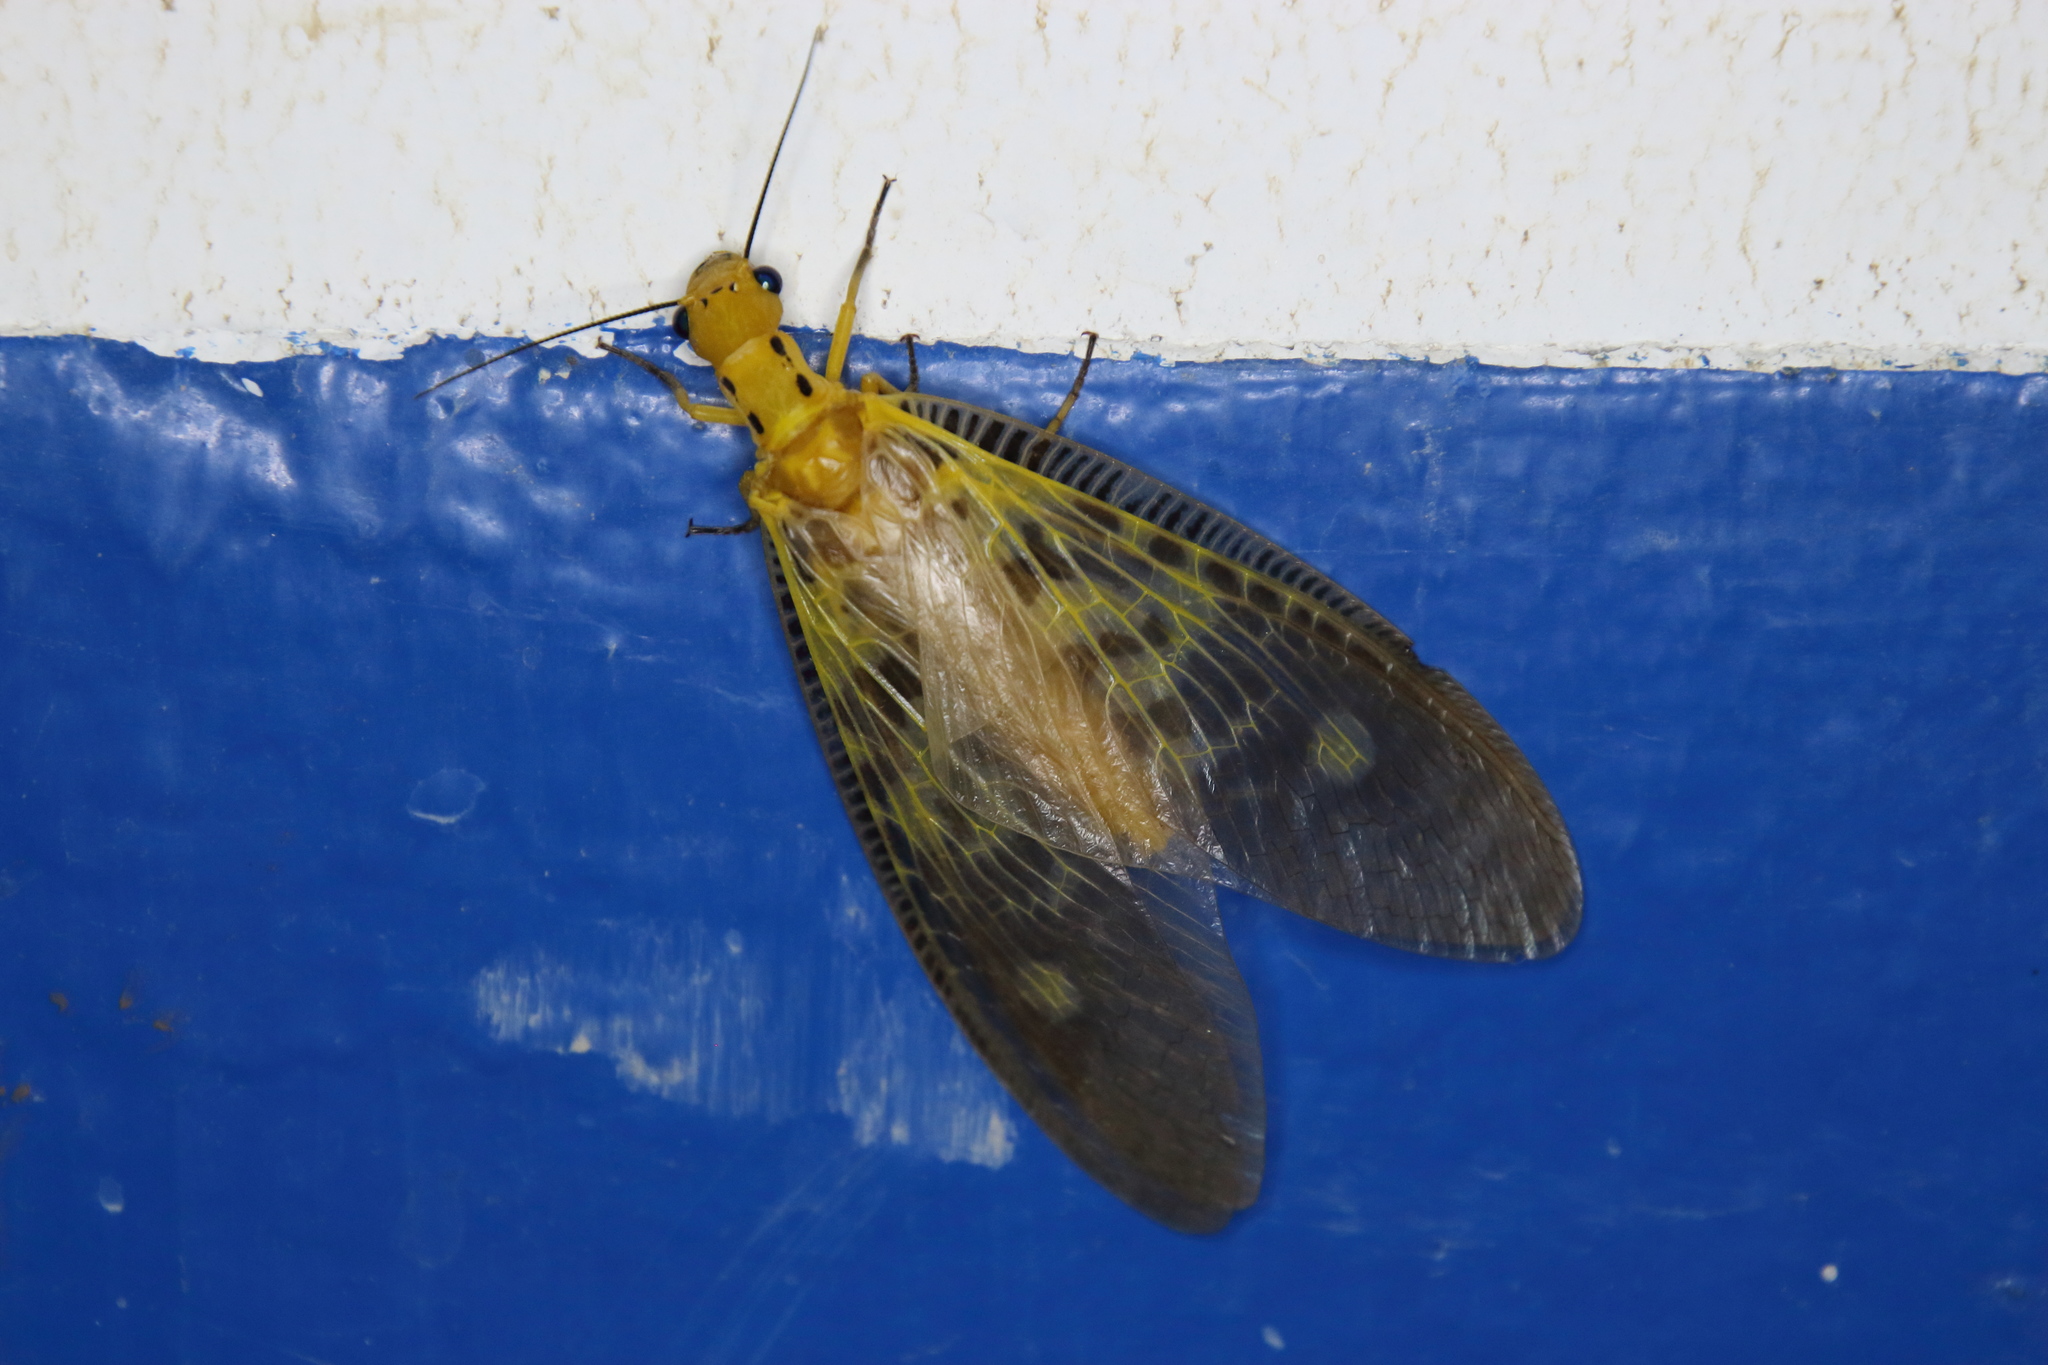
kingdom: Animalia
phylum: Arthropoda
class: Insecta
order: Megaloptera
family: Corydalidae
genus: Protohermes
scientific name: Protohermes lii
